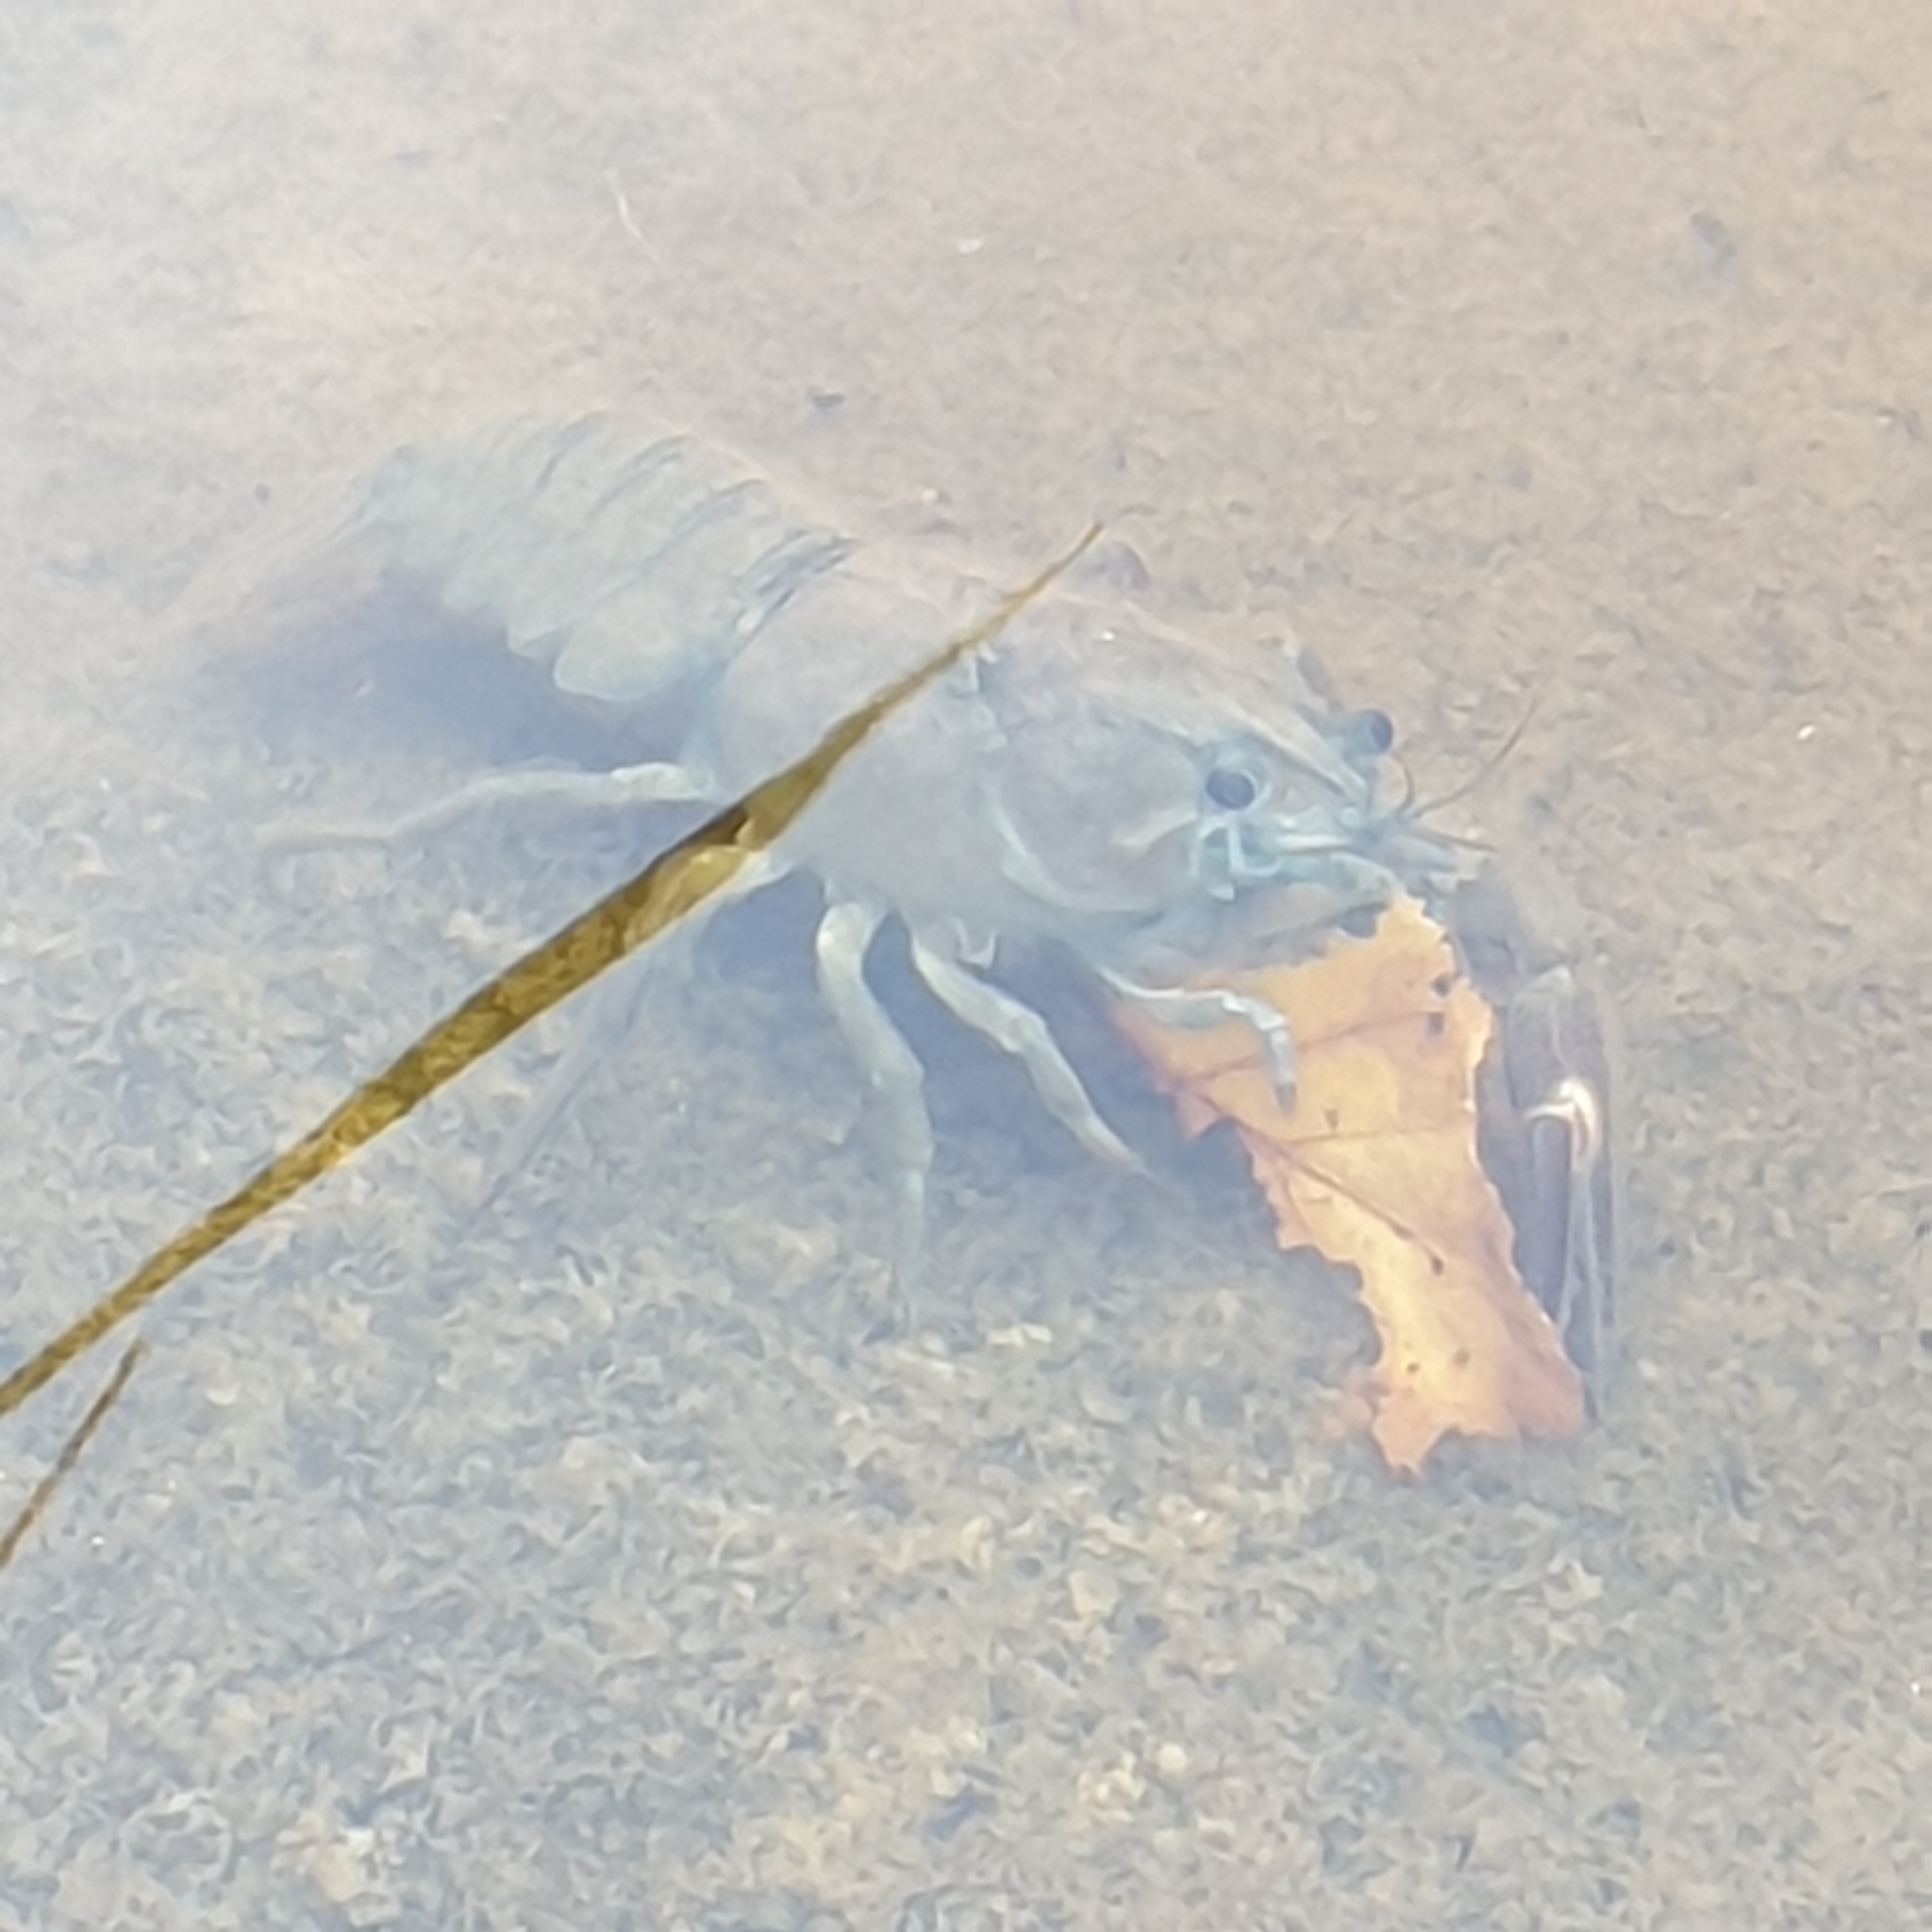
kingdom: Animalia
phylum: Arthropoda
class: Malacostraca
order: Decapoda
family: Astacidae
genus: Pacifastacus
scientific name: Pacifastacus leniusculus
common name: Signal crayfish
